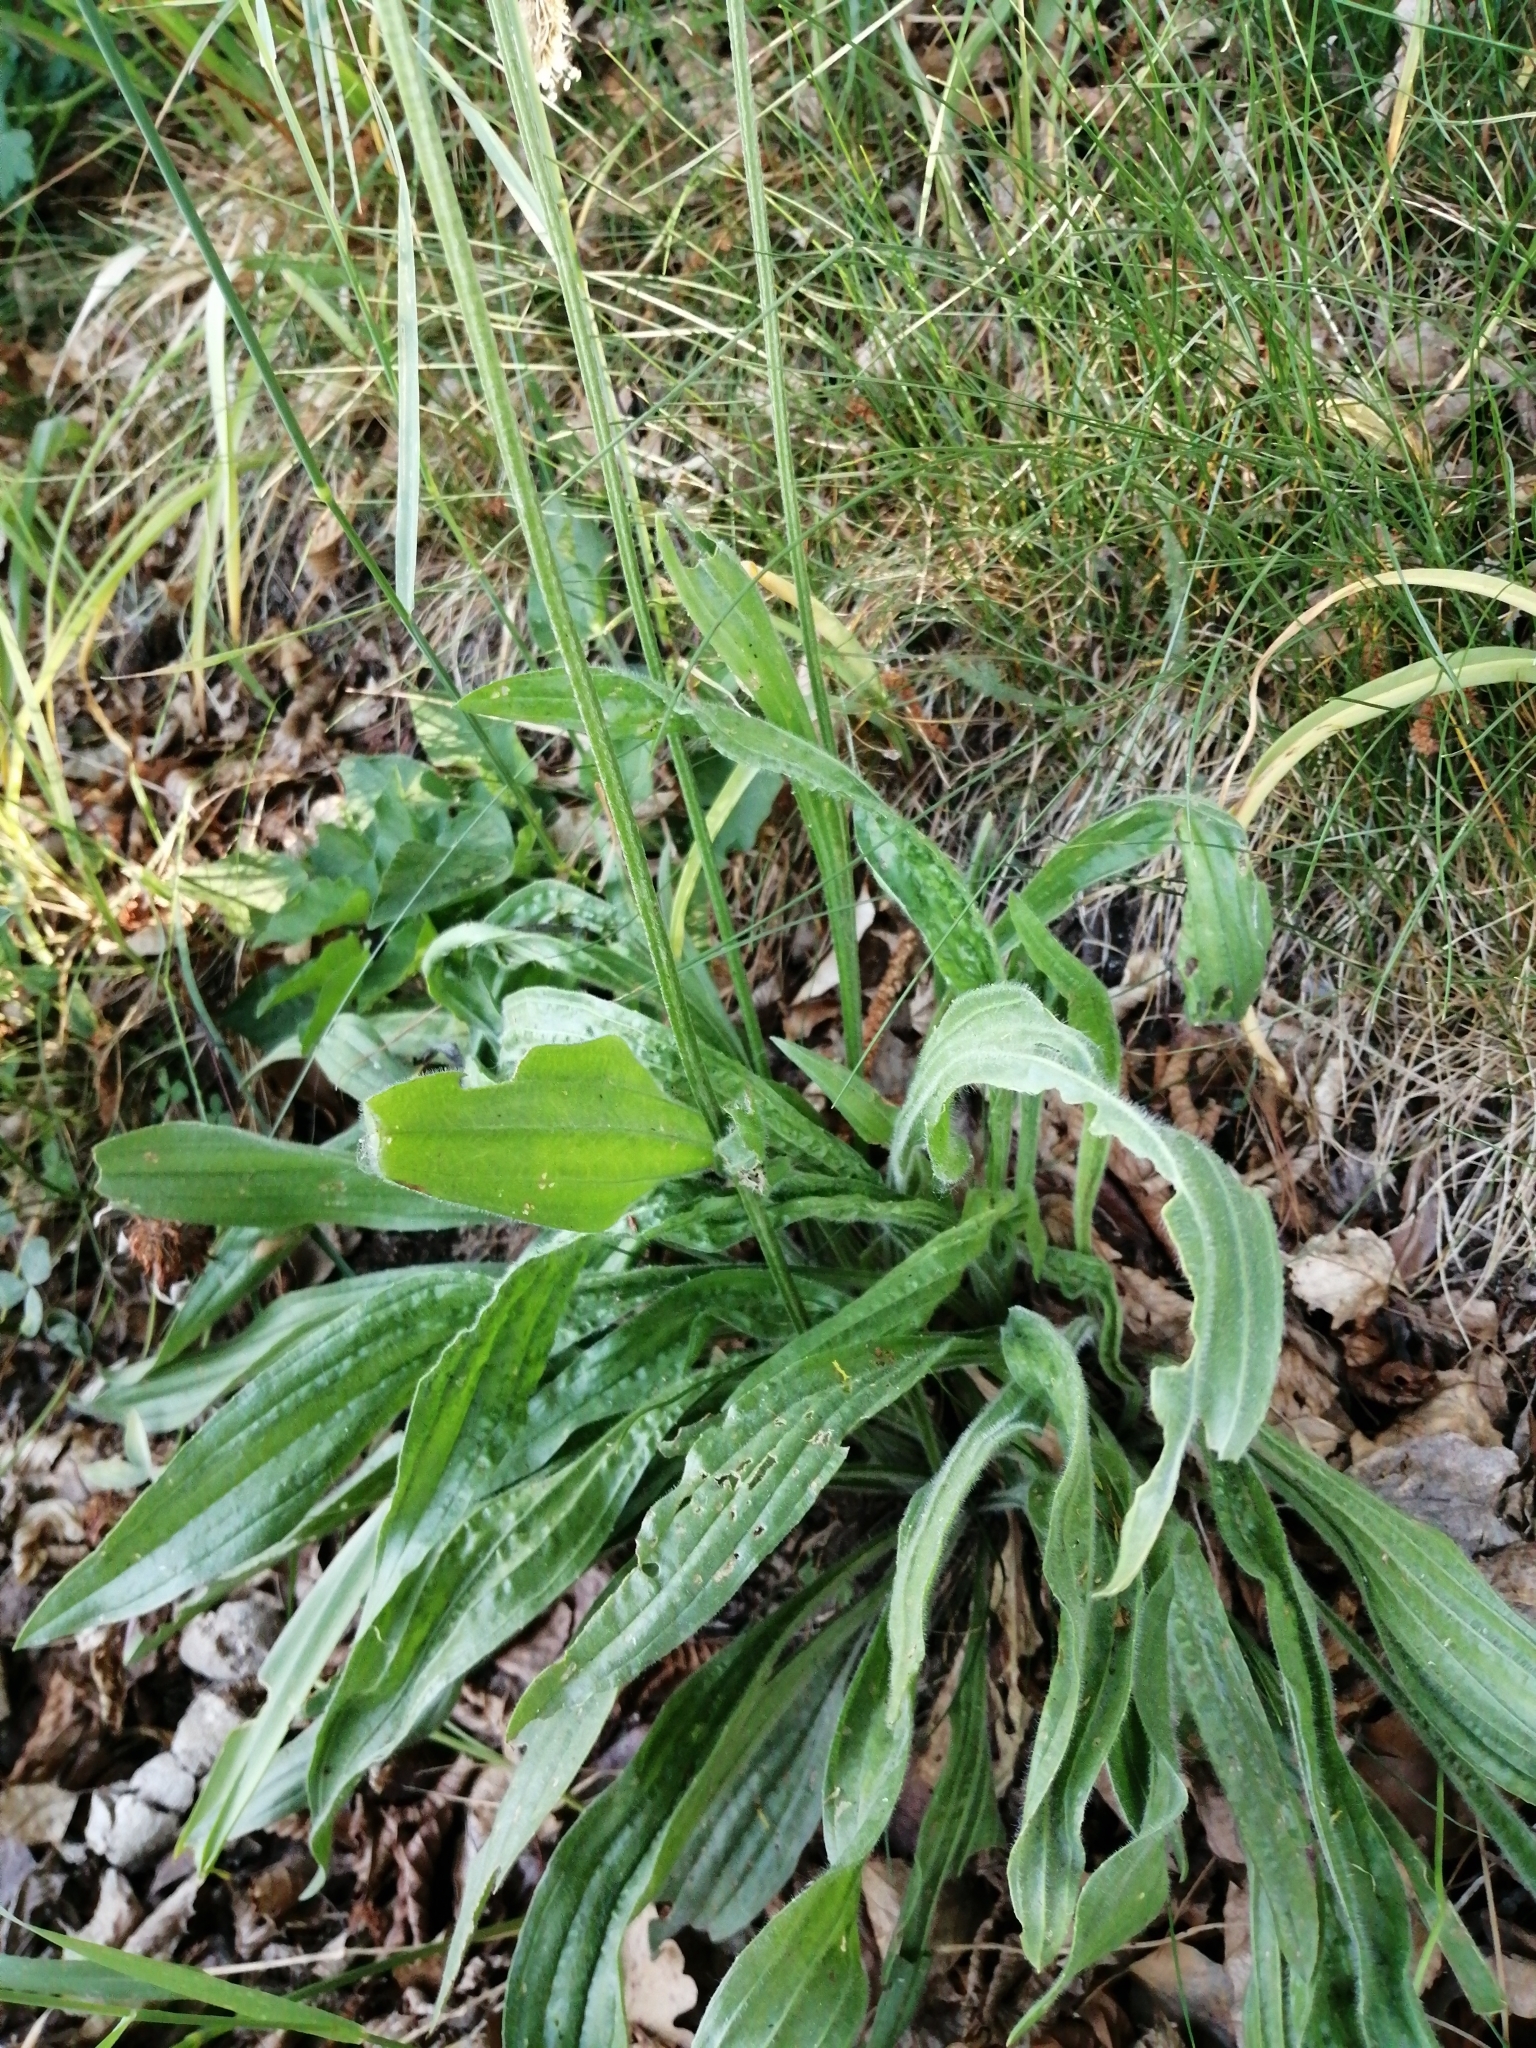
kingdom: Plantae
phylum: Tracheophyta
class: Magnoliopsida
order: Lamiales
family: Plantaginaceae
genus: Plantago
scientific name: Plantago lanceolata
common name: Ribwort plantain
